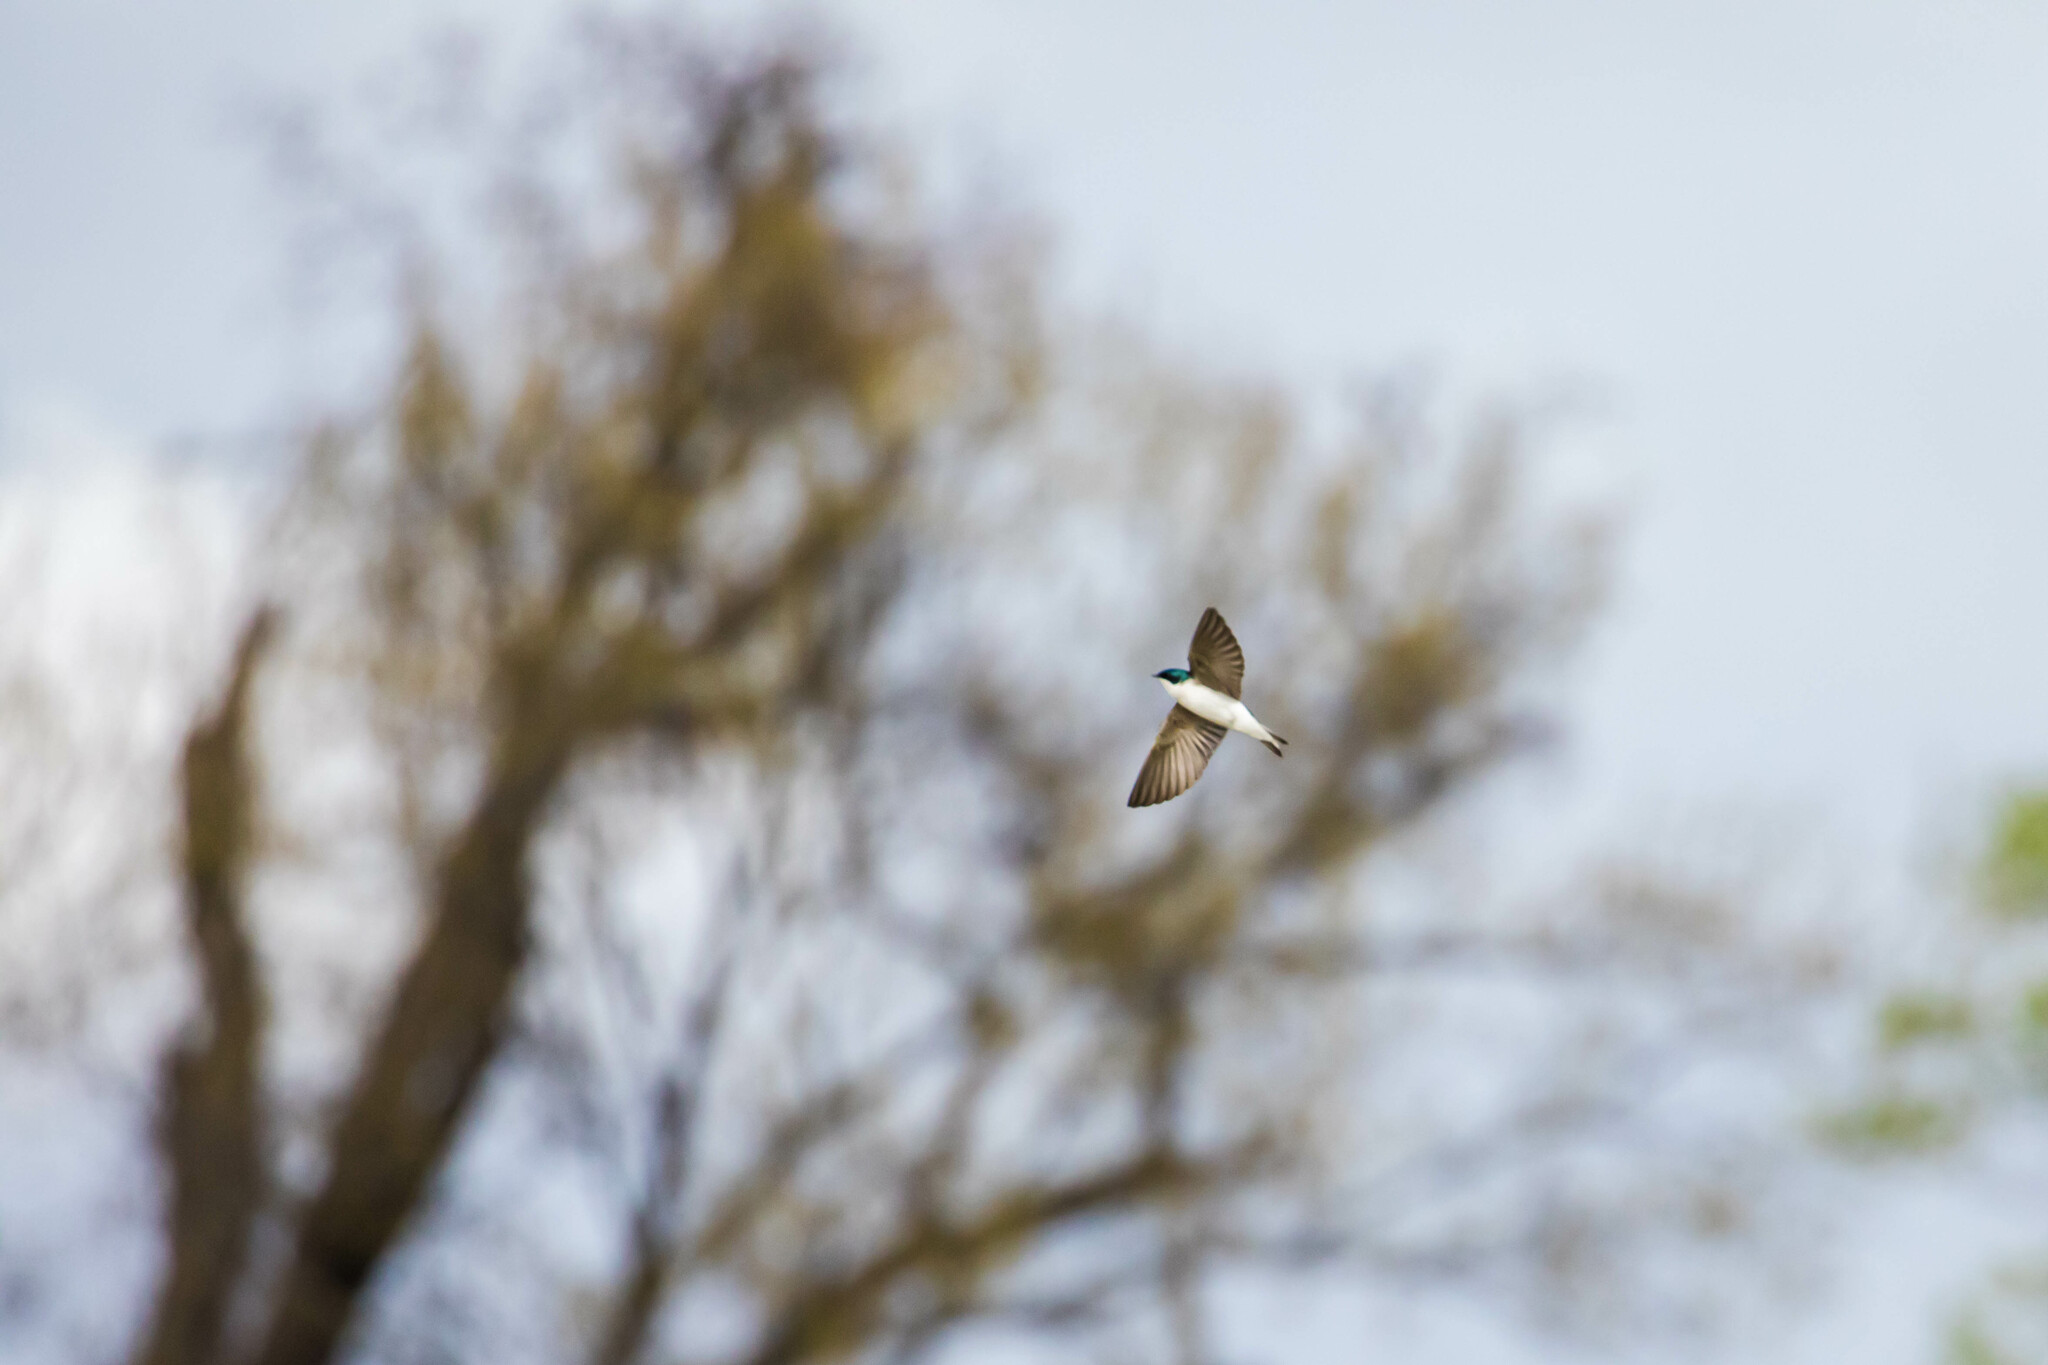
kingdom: Animalia
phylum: Chordata
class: Aves
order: Passeriformes
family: Hirundinidae
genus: Tachycineta
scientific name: Tachycineta bicolor
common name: Tree swallow
